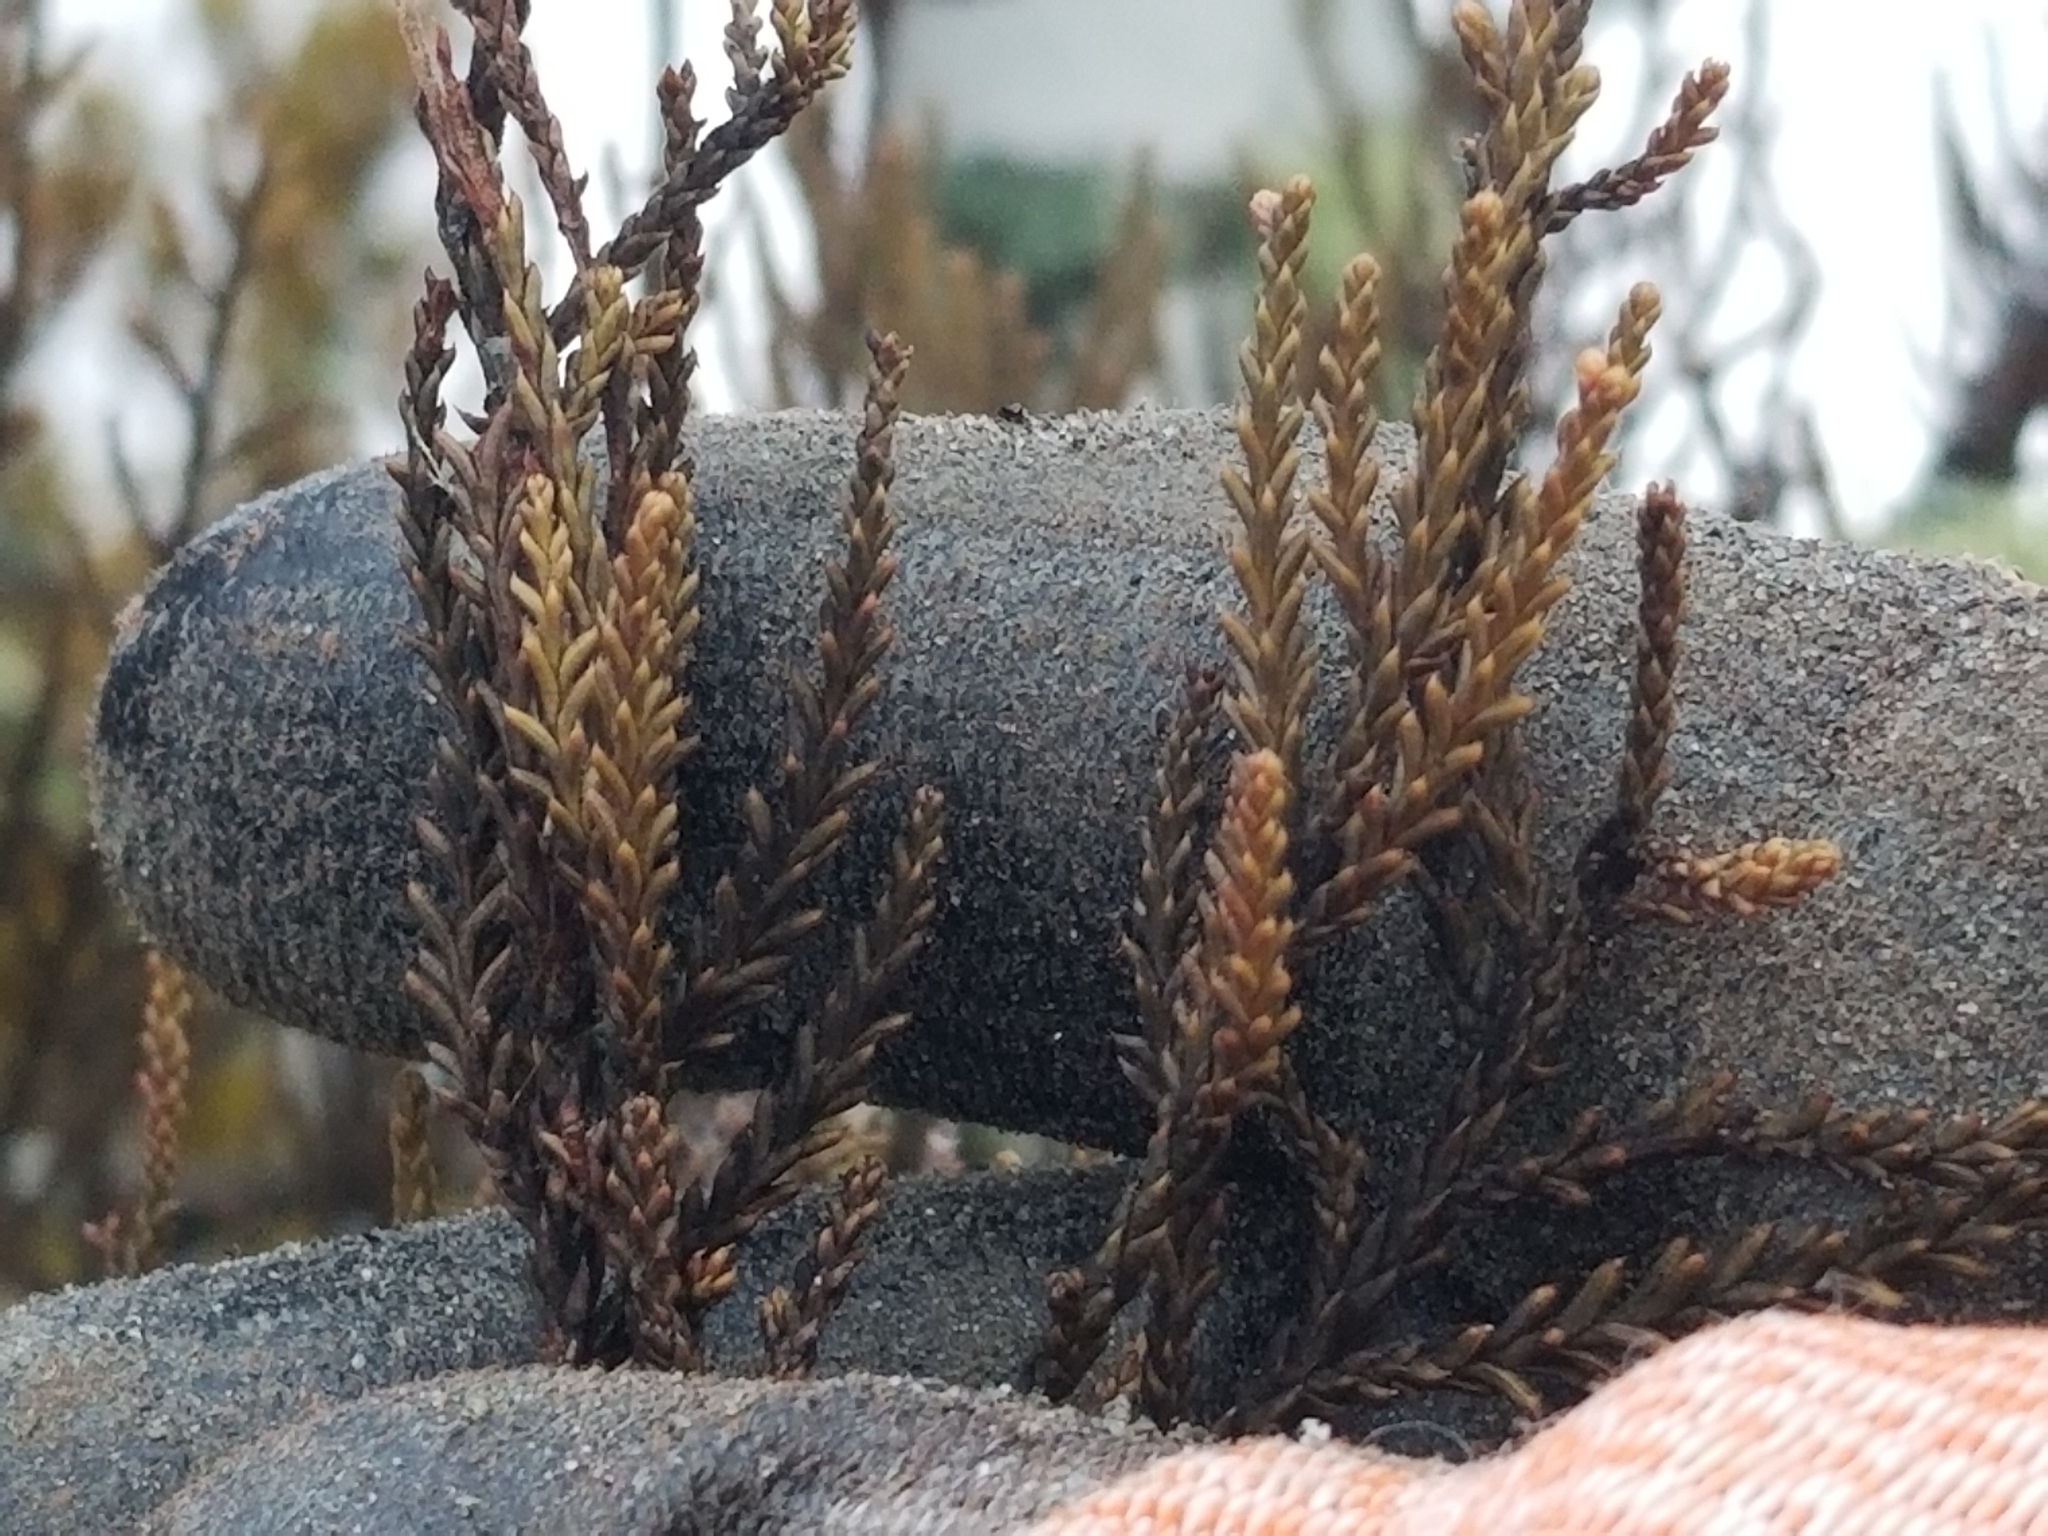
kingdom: Plantae
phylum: Tracheophyta
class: Pinopsida
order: Pinales
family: Podocarpaceae
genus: Dacrycarpus
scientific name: Dacrycarpus dacrydioides
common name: White pine
